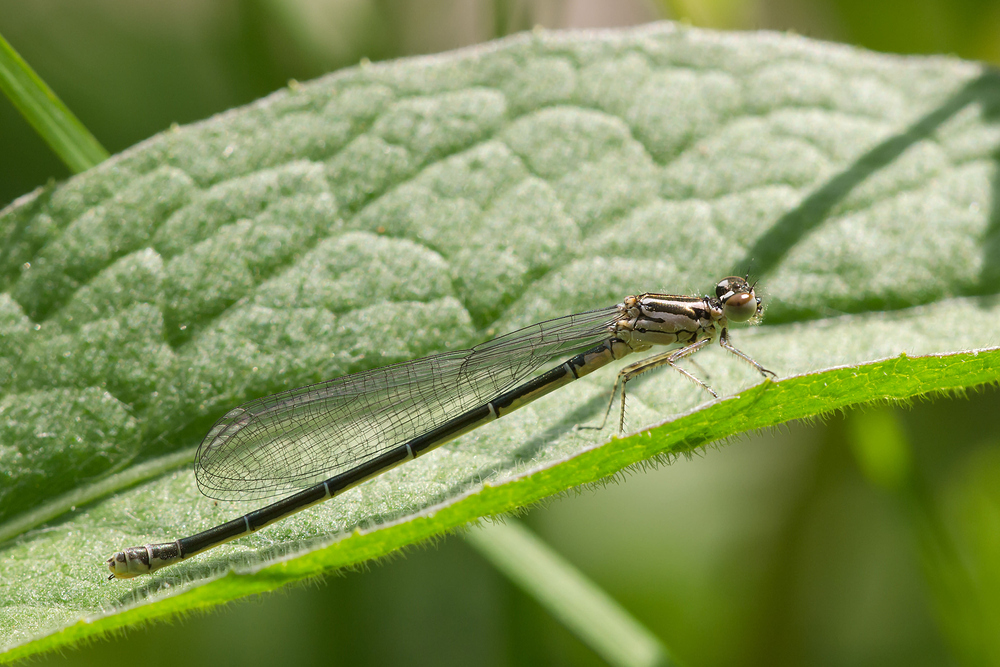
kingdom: Animalia
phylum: Arthropoda
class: Insecta
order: Odonata
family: Coenagrionidae
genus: Coenagrion
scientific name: Coenagrion puella
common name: Azure damselfly
